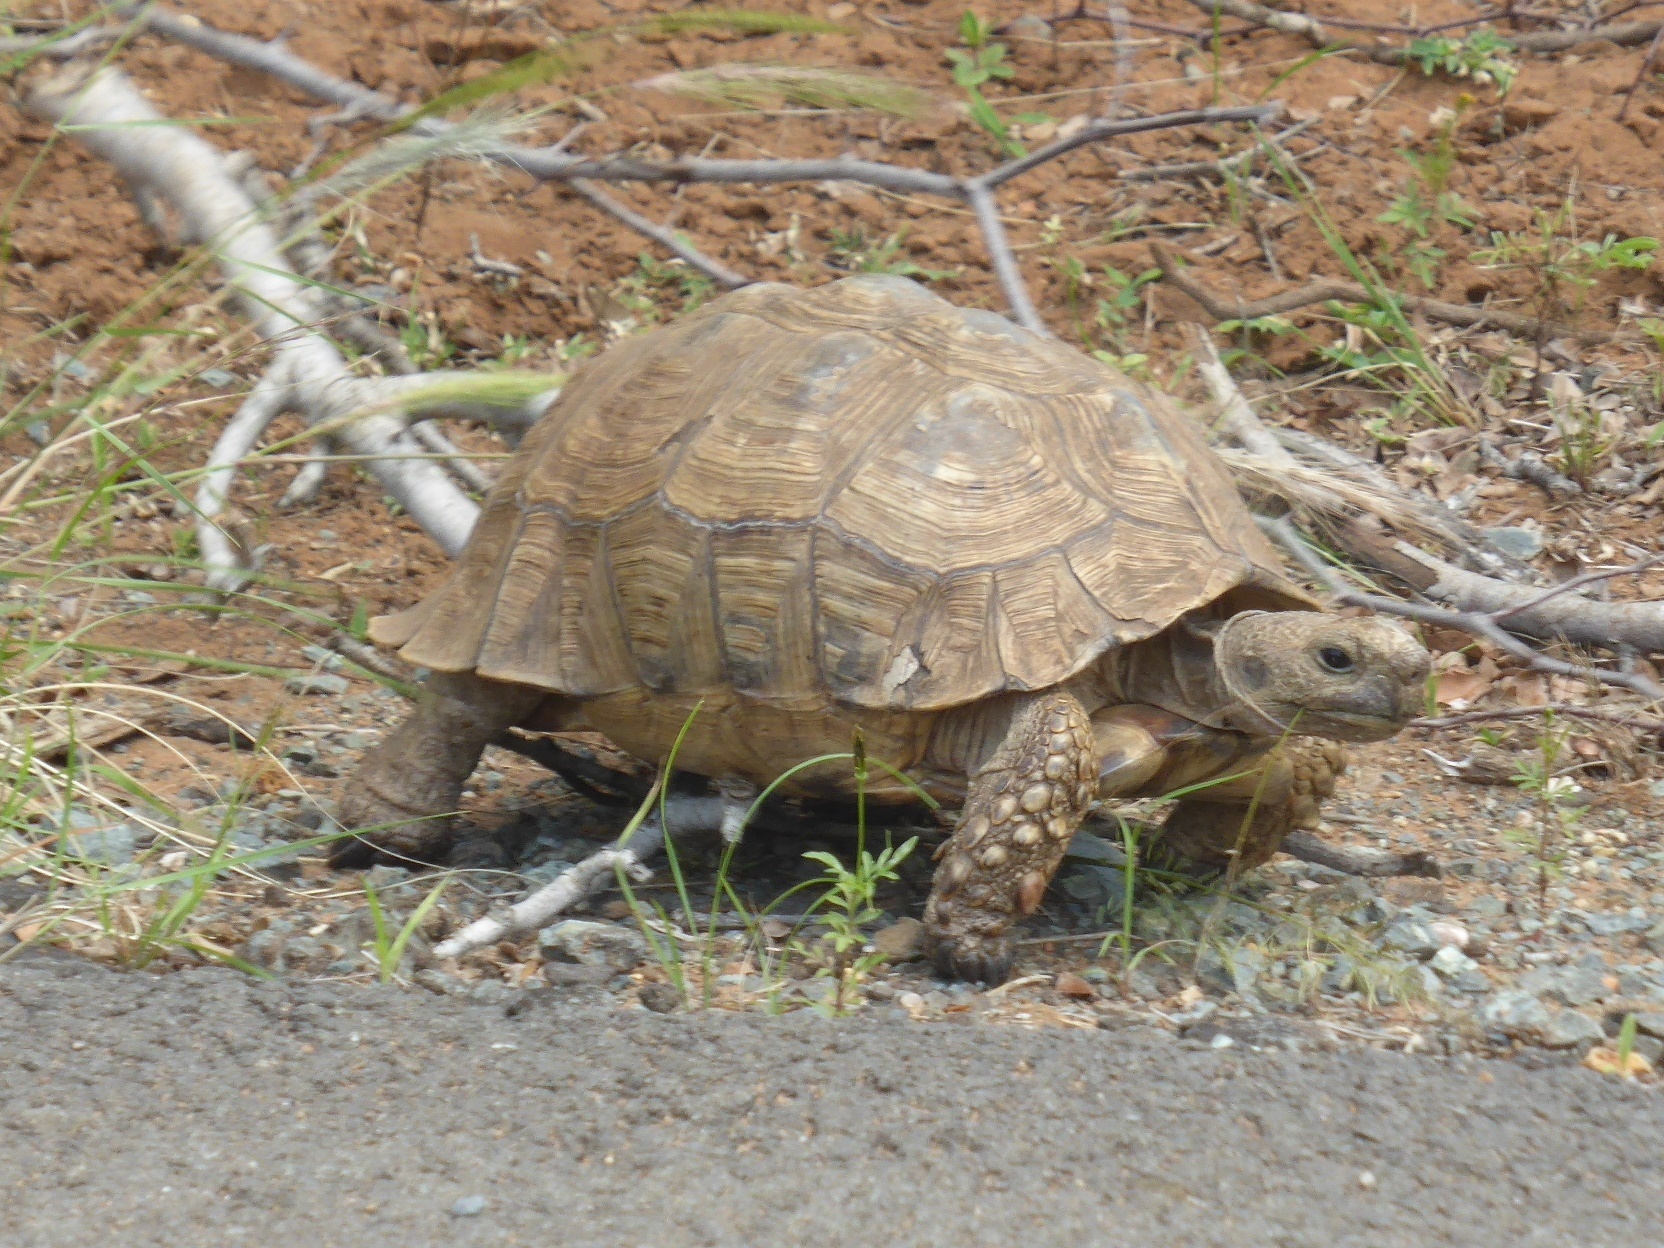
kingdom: Animalia
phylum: Chordata
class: Testudines
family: Testudinidae
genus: Stigmochelys
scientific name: Stigmochelys pardalis
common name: Leopard tortoise
